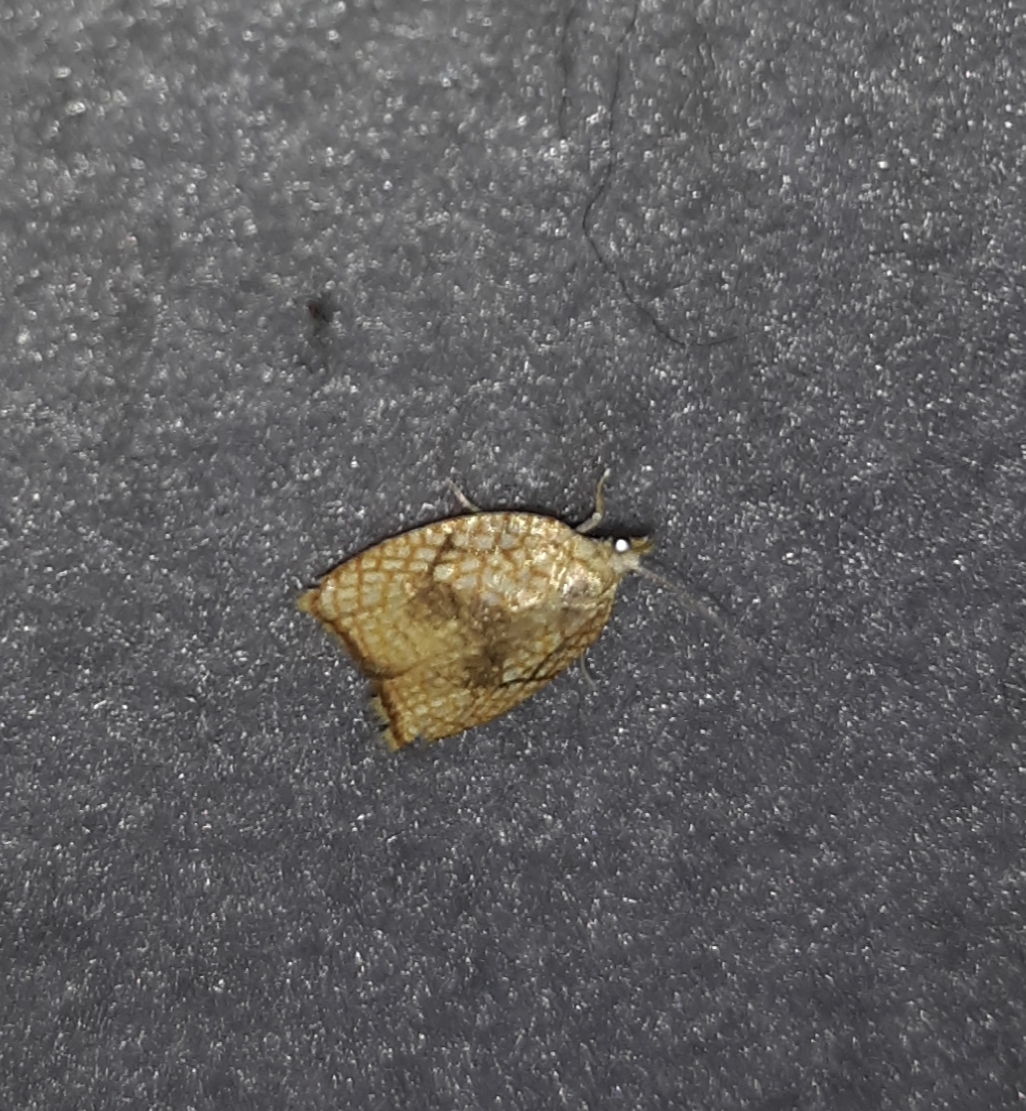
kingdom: Animalia
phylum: Arthropoda
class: Insecta
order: Lepidoptera
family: Tortricidae
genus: Acleris
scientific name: Acleris forsskaleana
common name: Maple button
